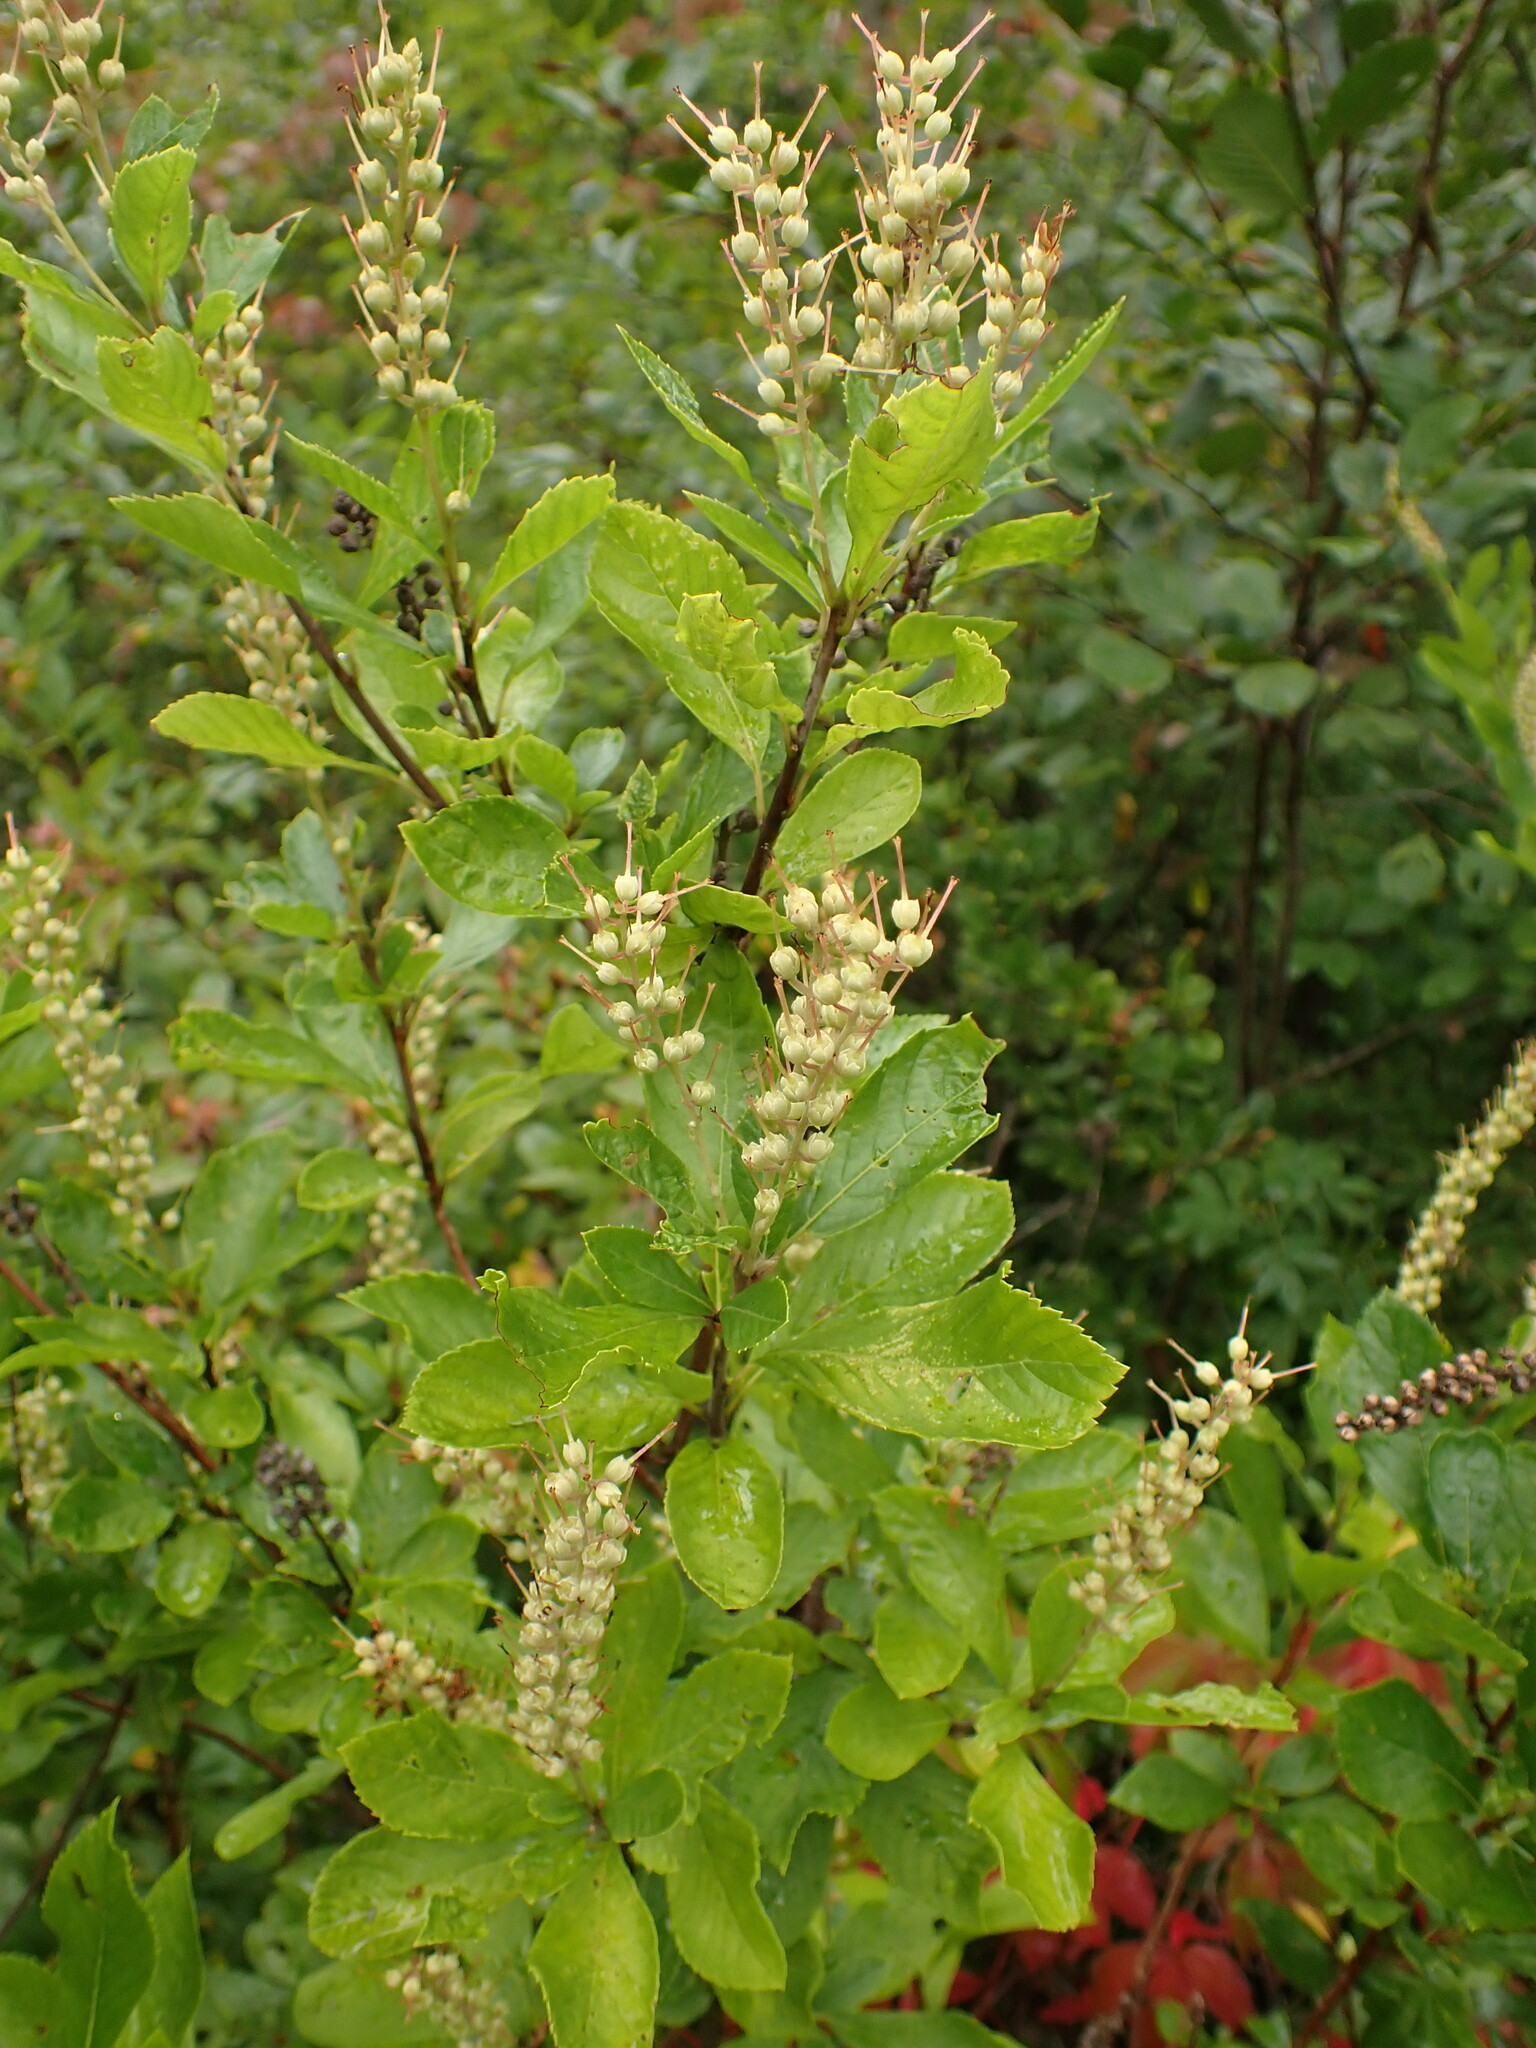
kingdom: Plantae
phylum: Tracheophyta
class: Magnoliopsida
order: Ericales
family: Clethraceae
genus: Clethra
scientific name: Clethra alnifolia
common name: Sweet pepperbush
